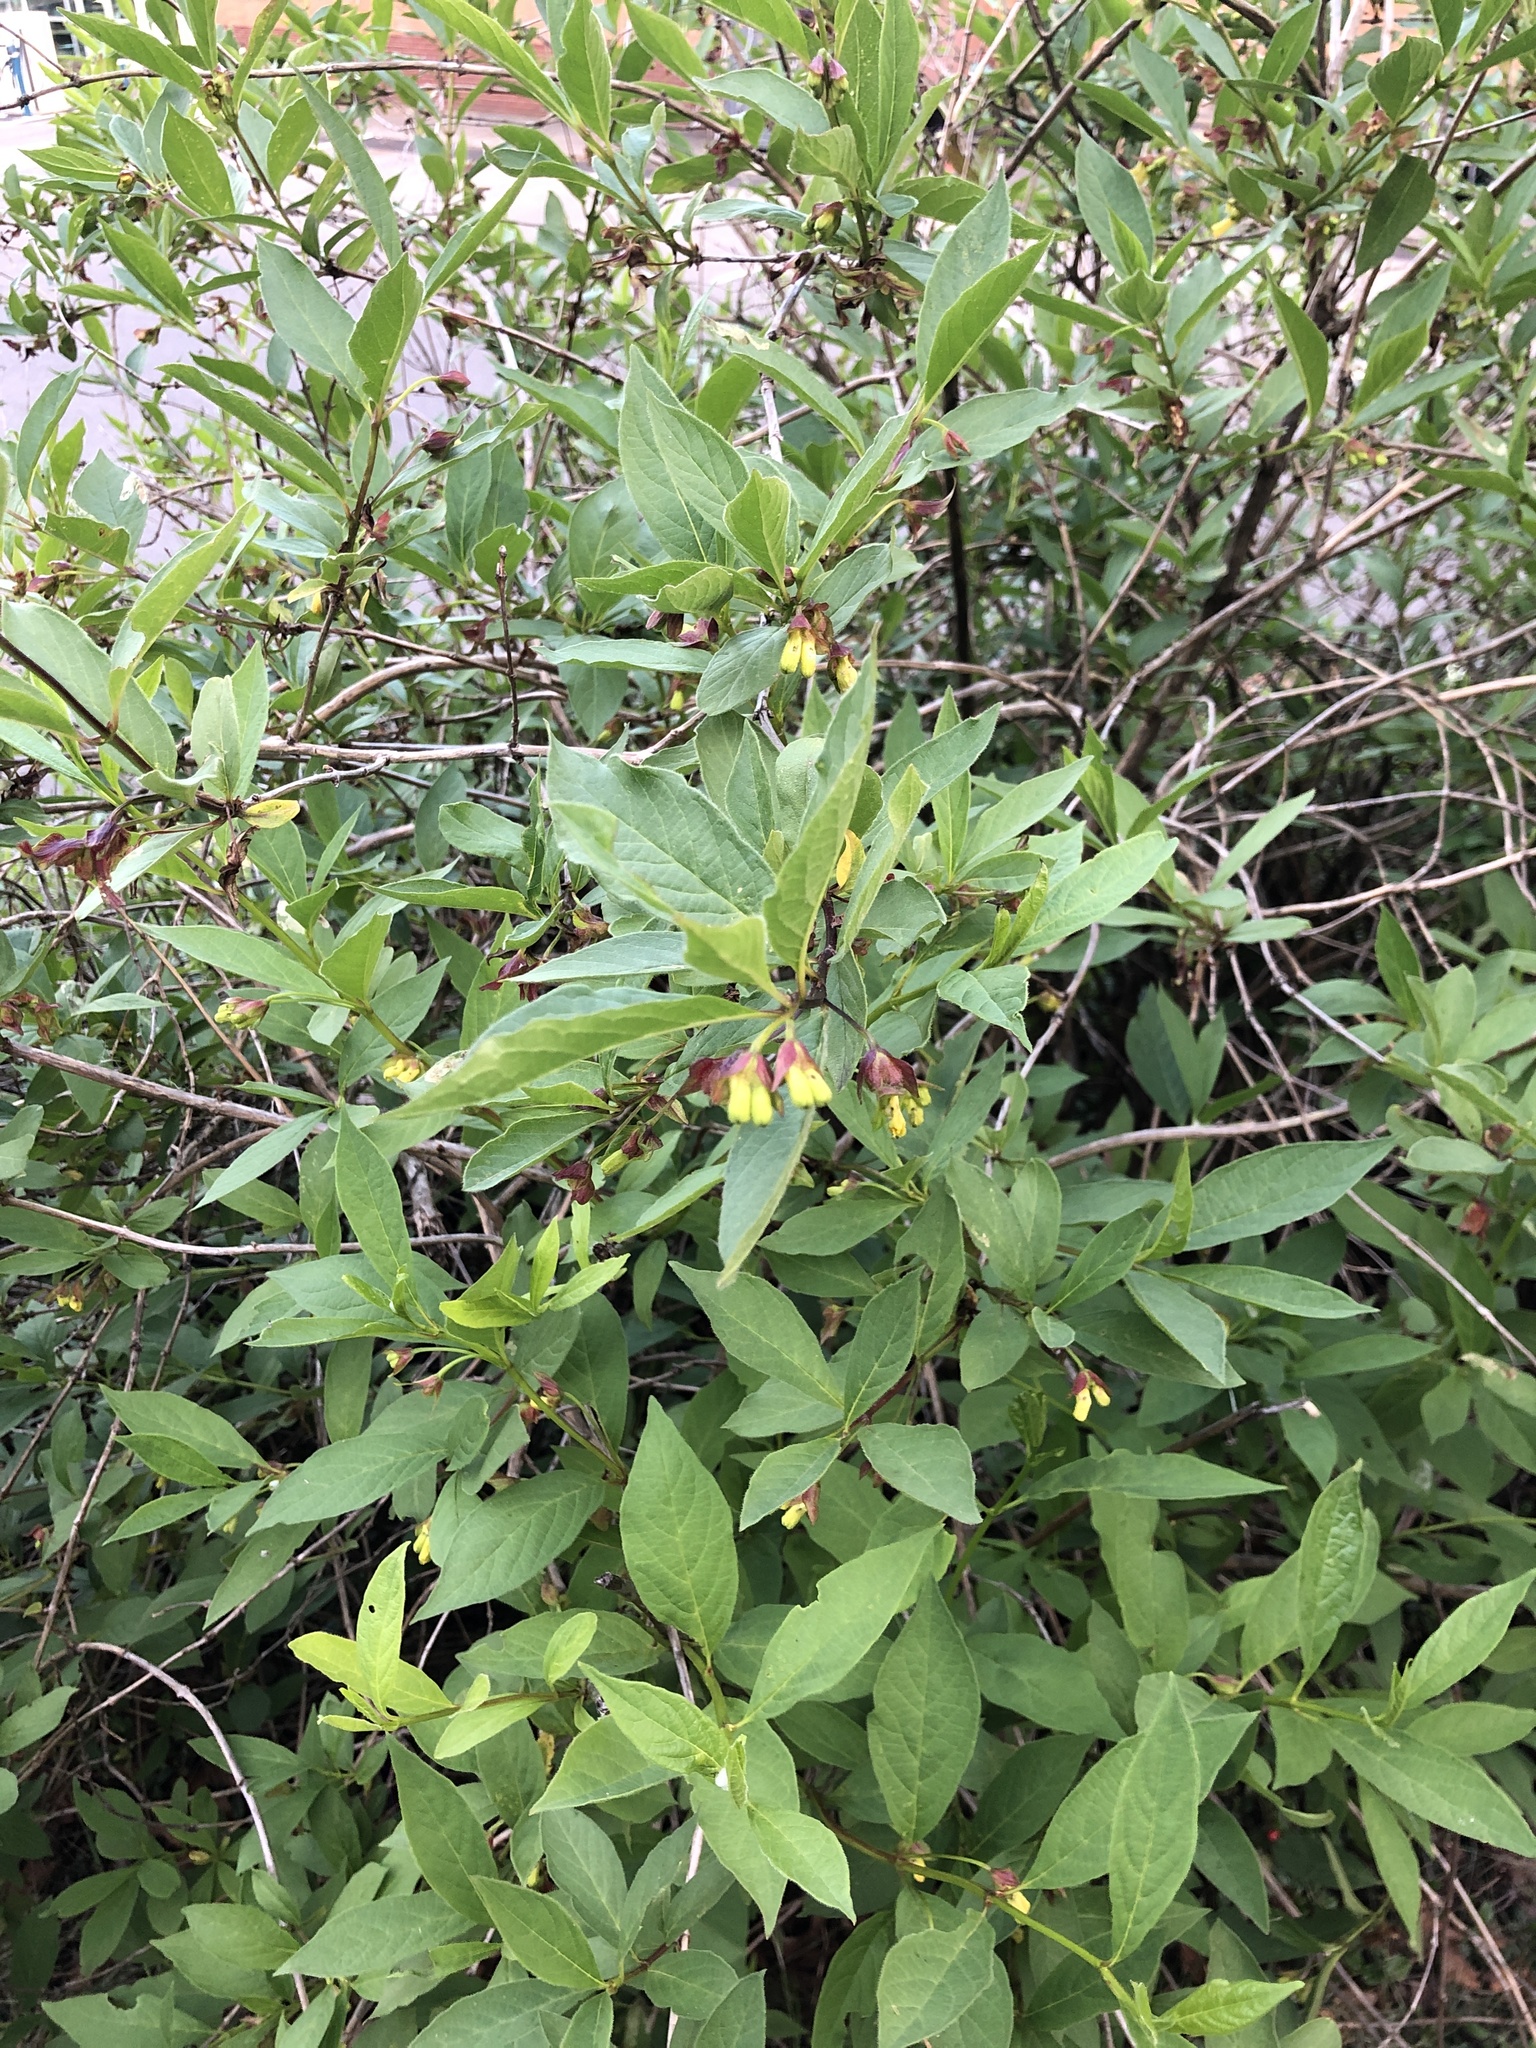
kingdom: Plantae
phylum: Tracheophyta
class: Magnoliopsida
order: Dipsacales
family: Caprifoliaceae
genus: Lonicera
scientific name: Lonicera involucrata
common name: Californian honeysuckle
